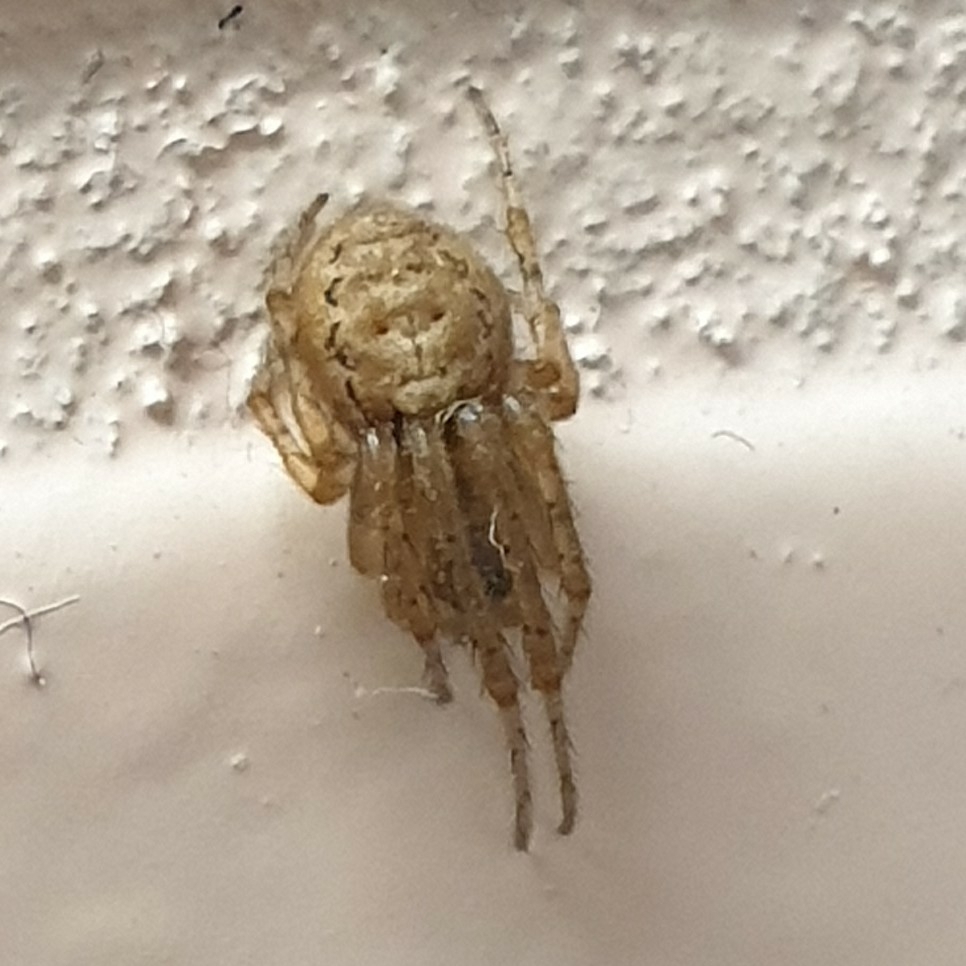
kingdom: Animalia
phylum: Arthropoda
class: Arachnida
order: Araneae
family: Araneidae
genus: Zygiella
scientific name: Zygiella x-notata
